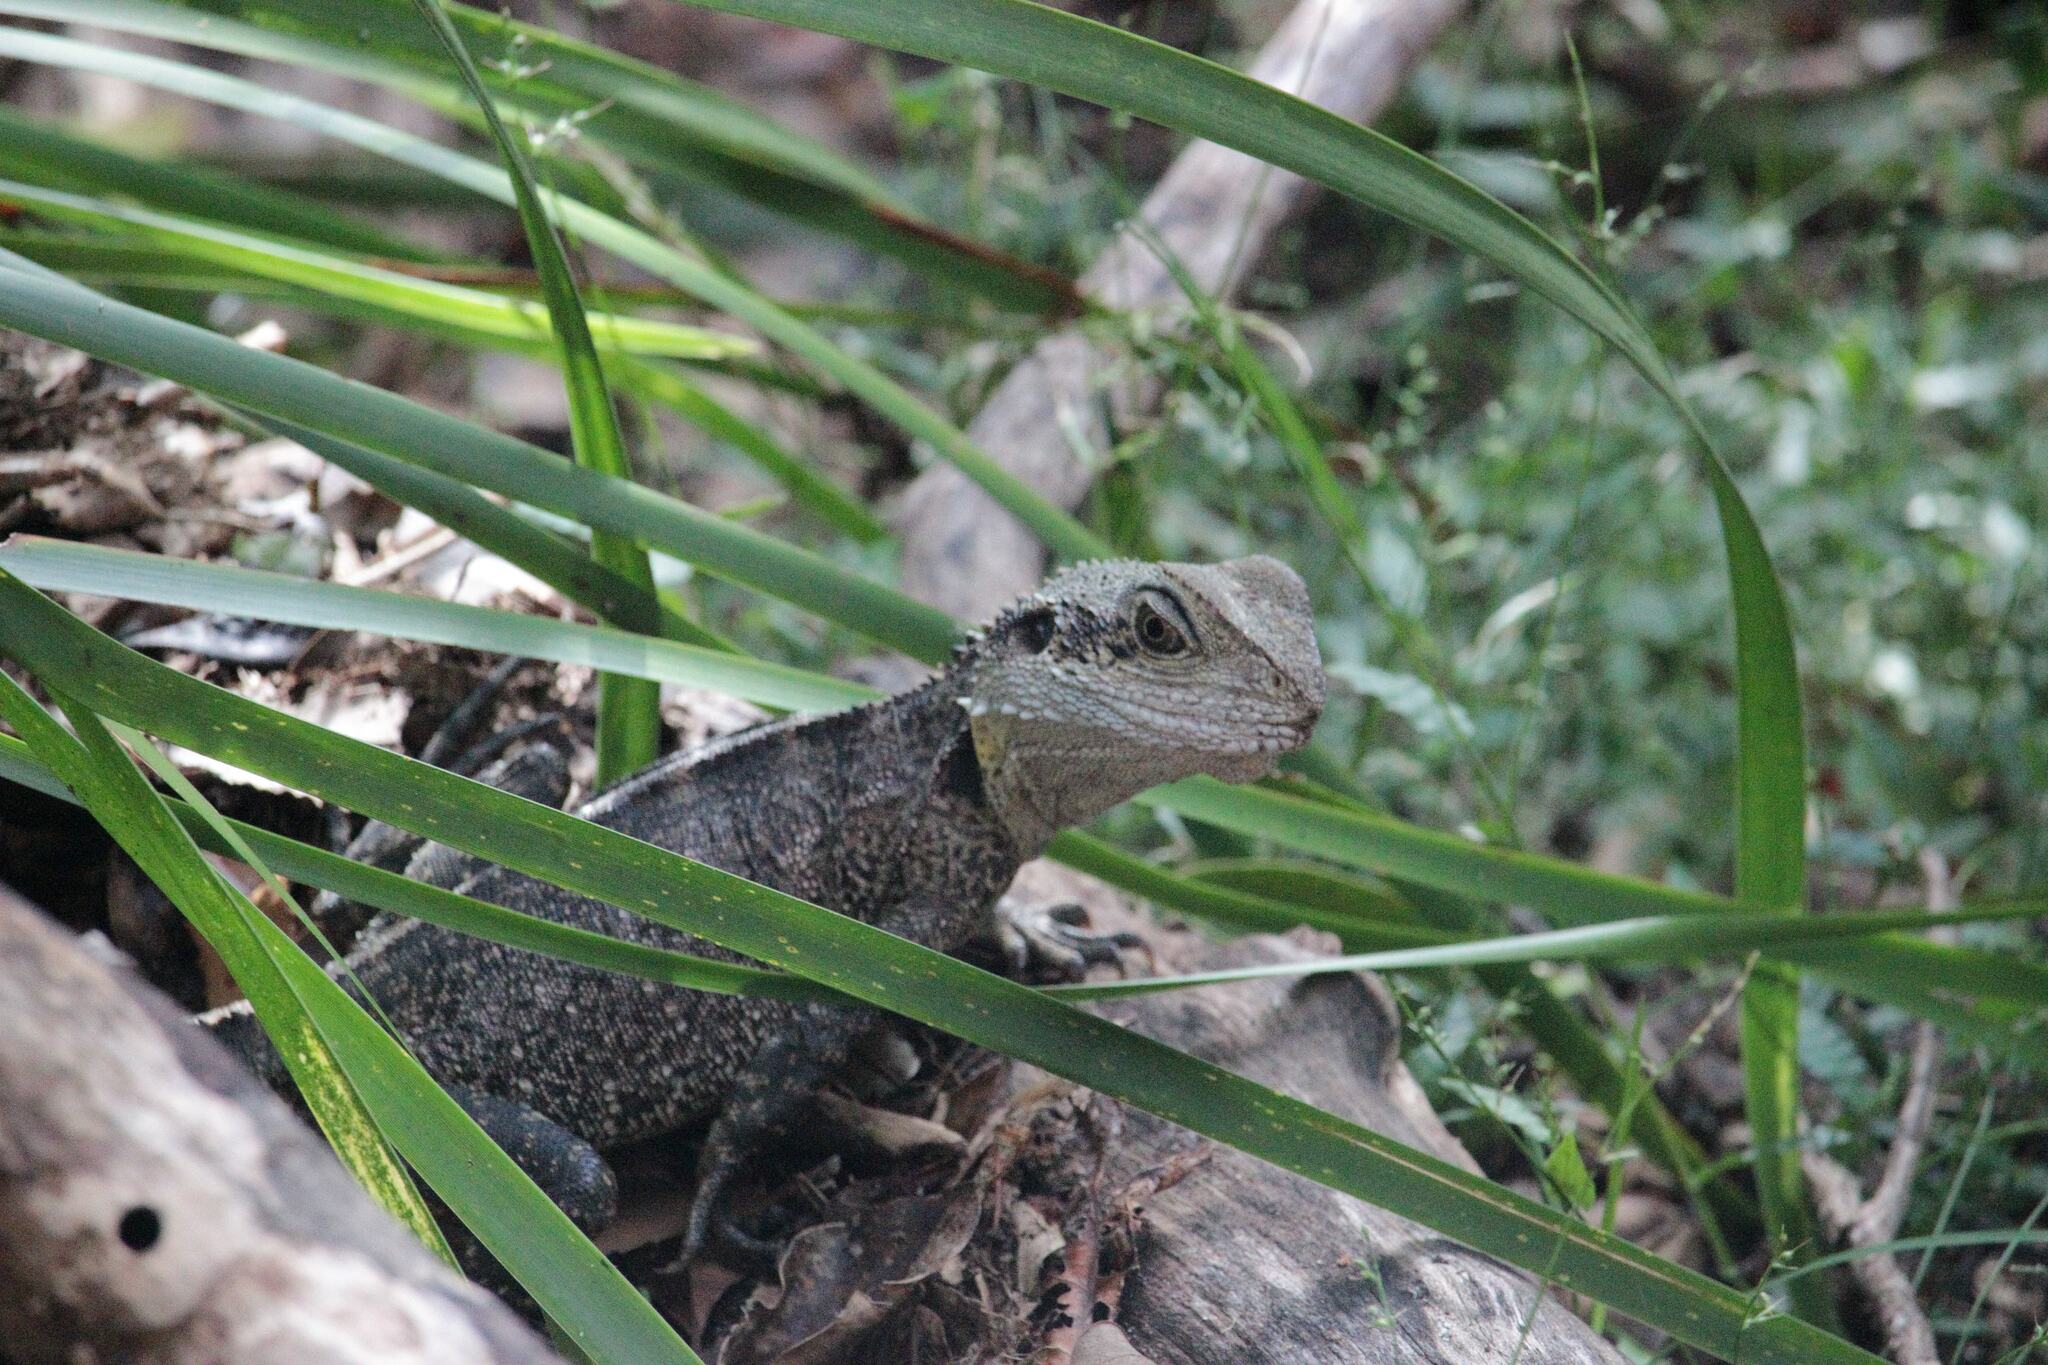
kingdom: Animalia
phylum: Chordata
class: Squamata
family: Agamidae
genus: Intellagama
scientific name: Intellagama lesueurii
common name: Eastern water dragon
